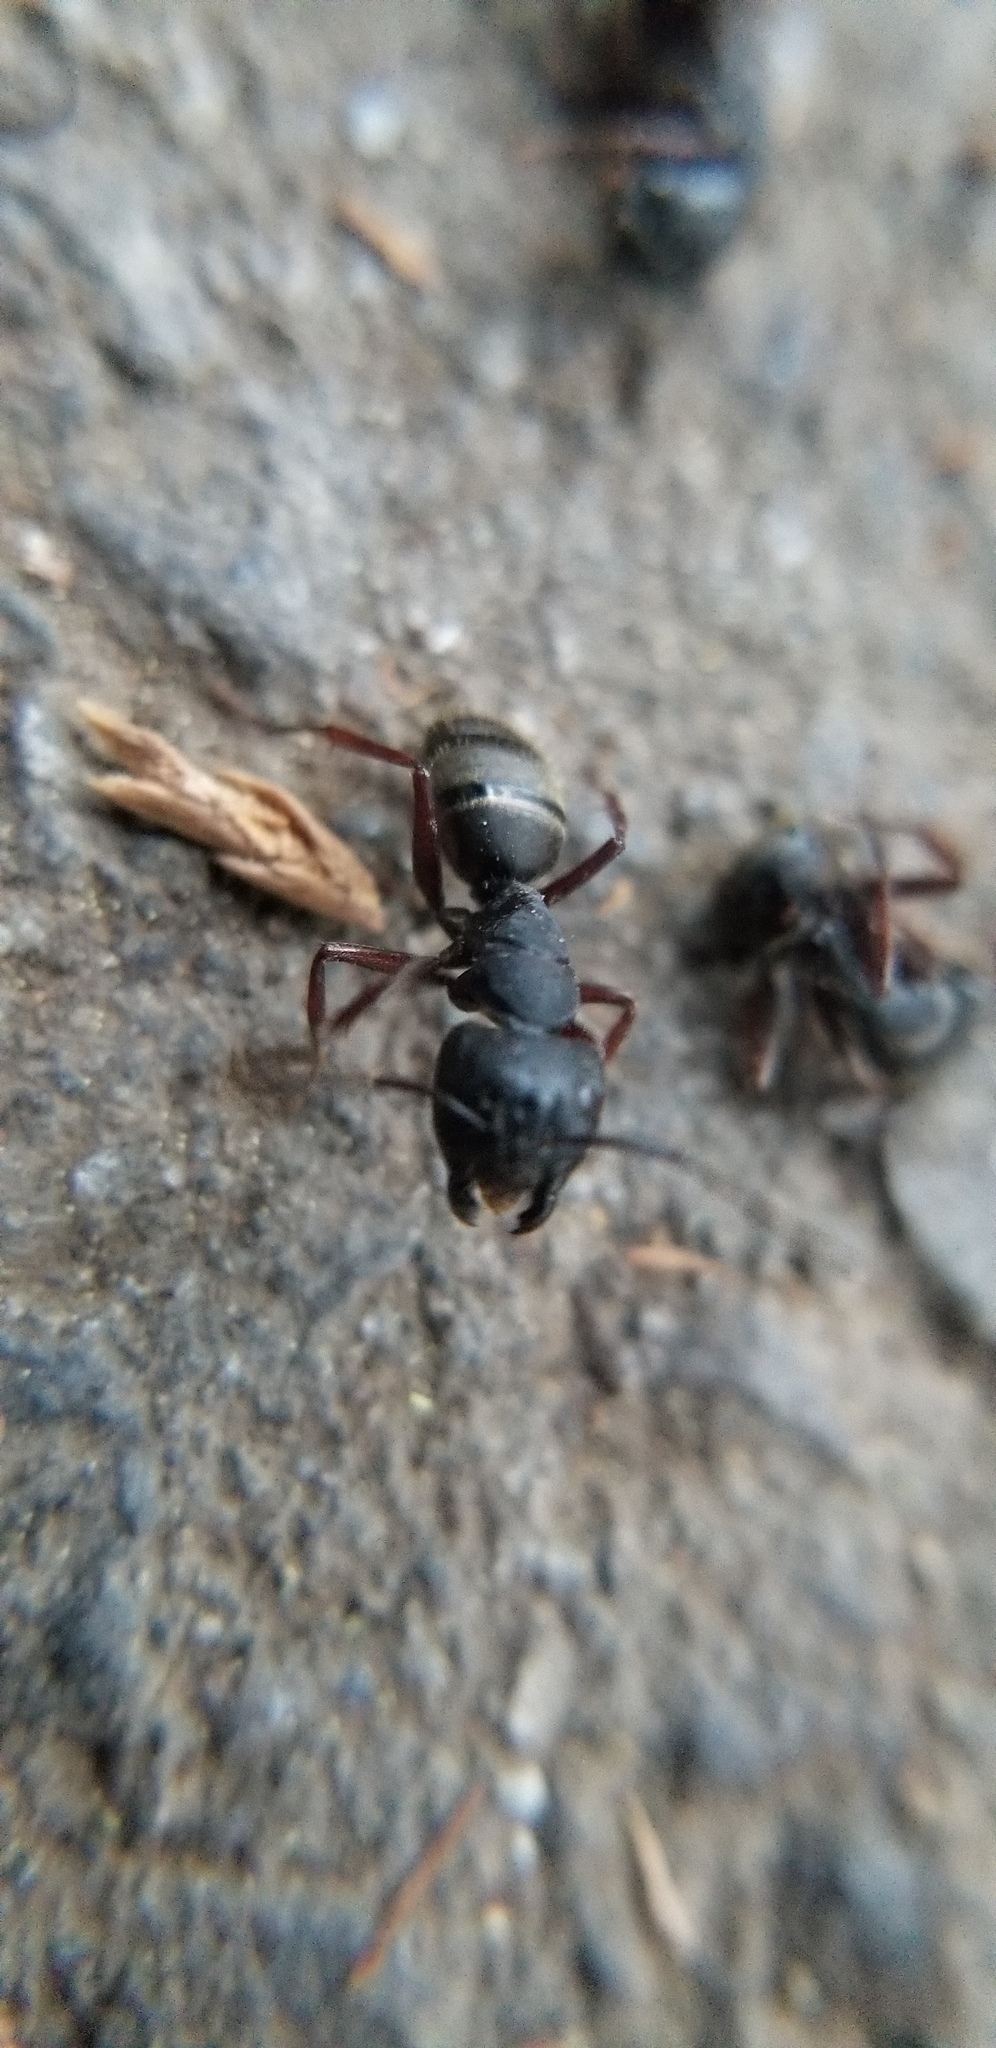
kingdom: Animalia
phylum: Arthropoda
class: Insecta
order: Hymenoptera
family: Formicidae
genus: Camponotus
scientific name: Camponotus modoc
